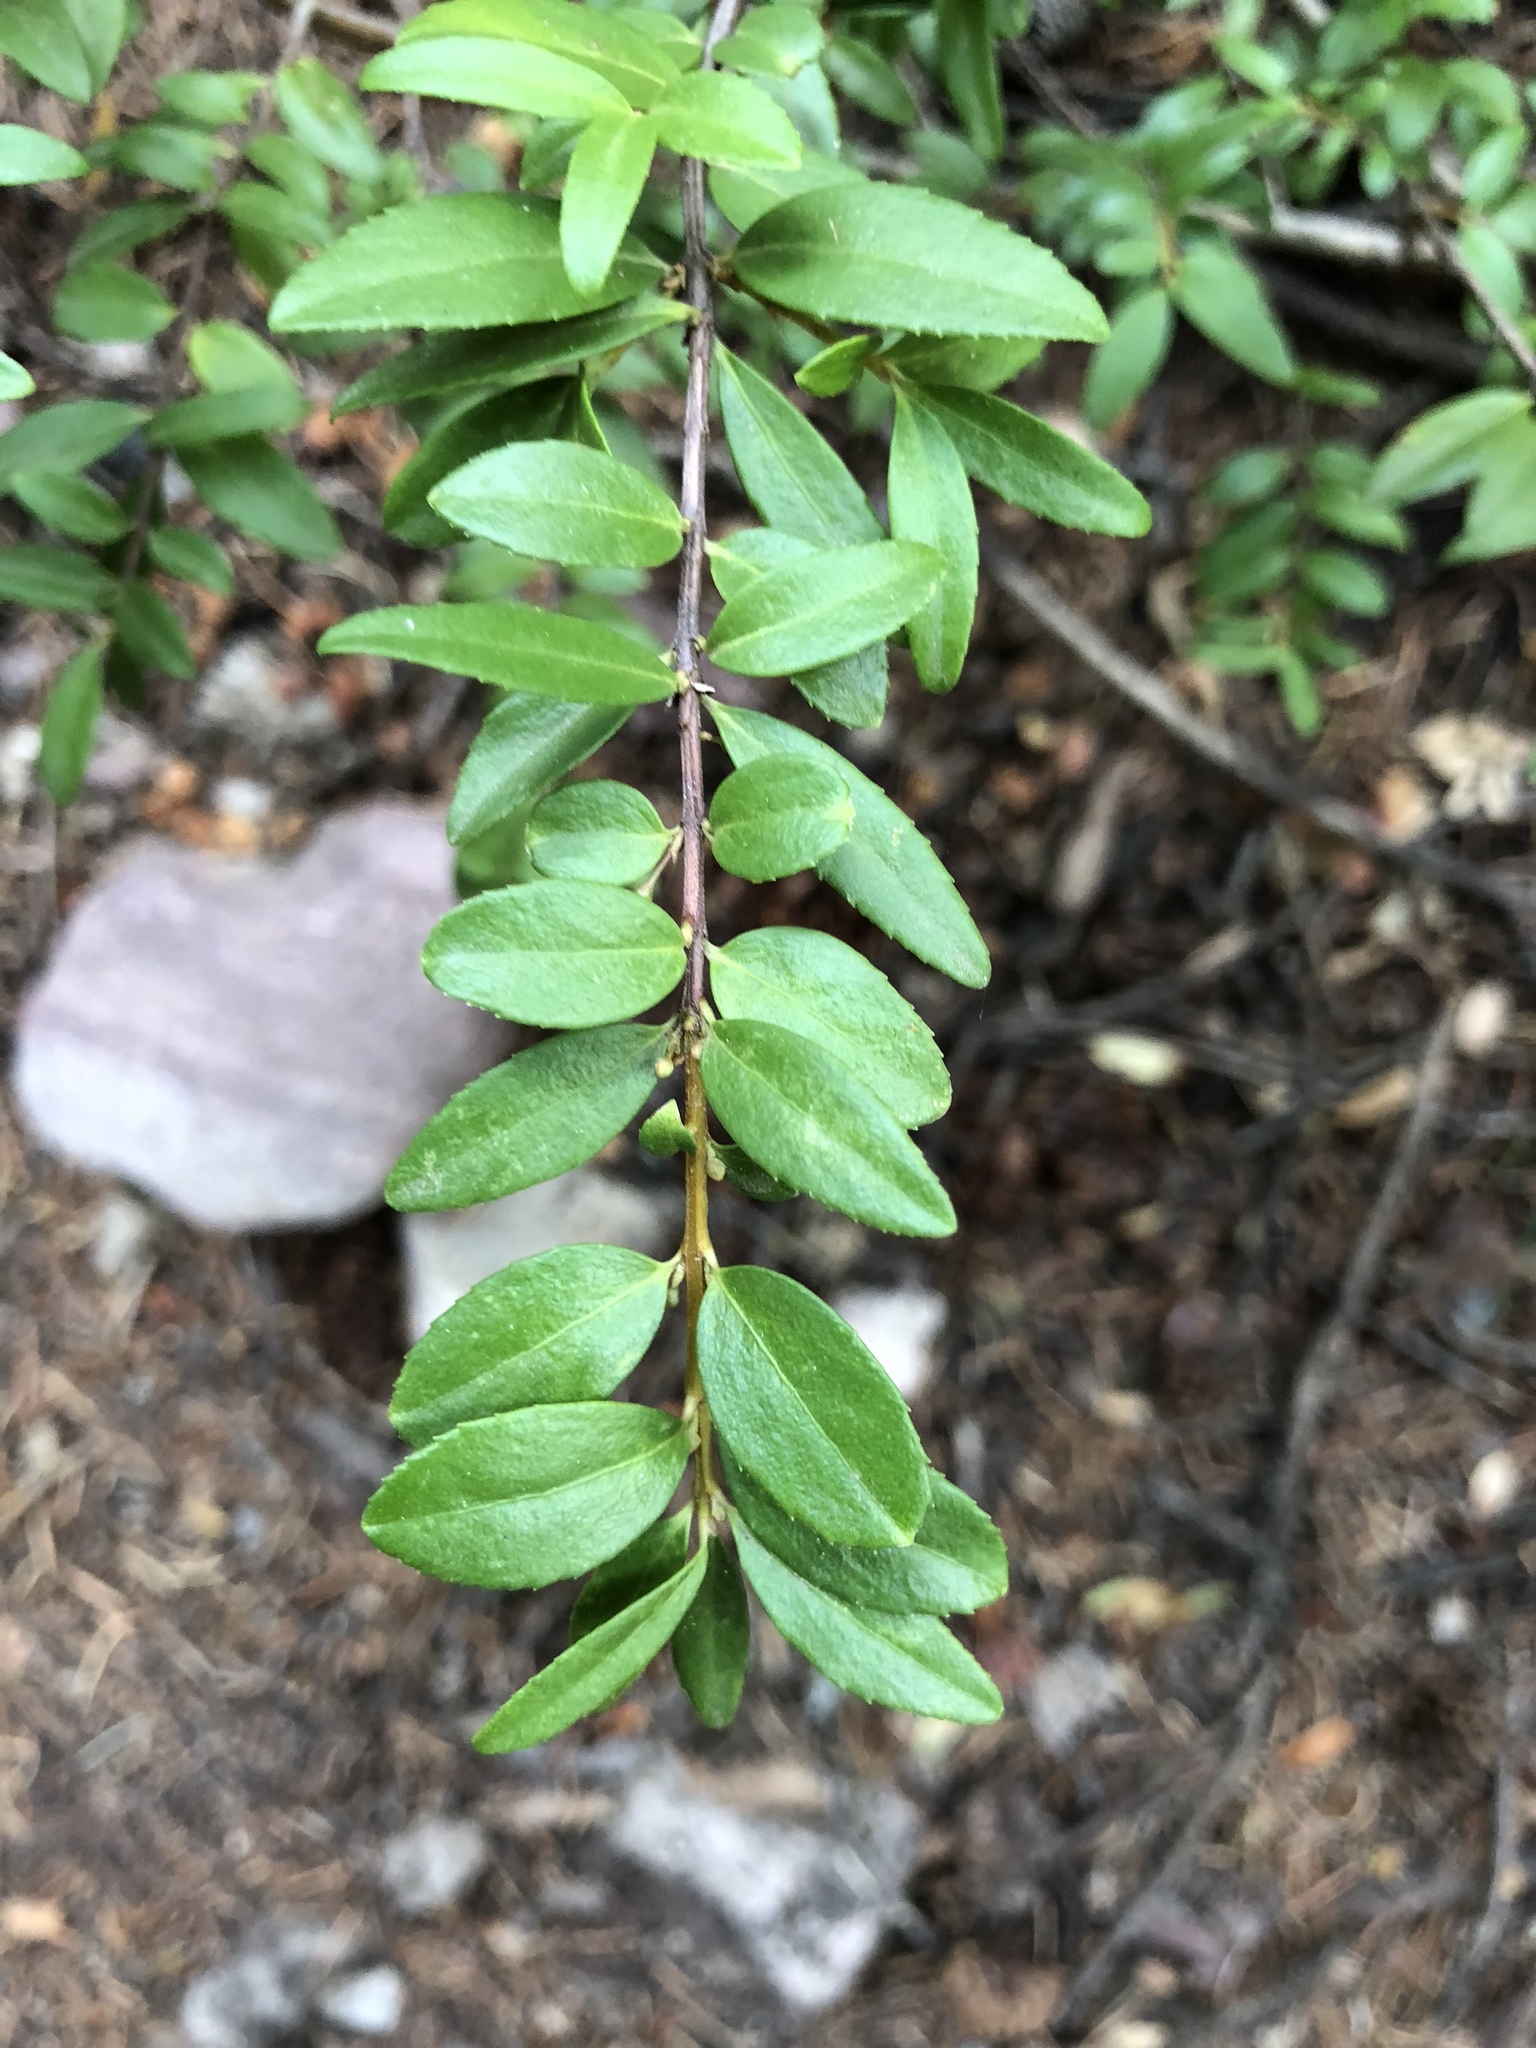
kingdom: Plantae
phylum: Tracheophyta
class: Magnoliopsida
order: Celastrales
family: Celastraceae
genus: Paxistima
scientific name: Paxistima myrsinites
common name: Mountain-lover
